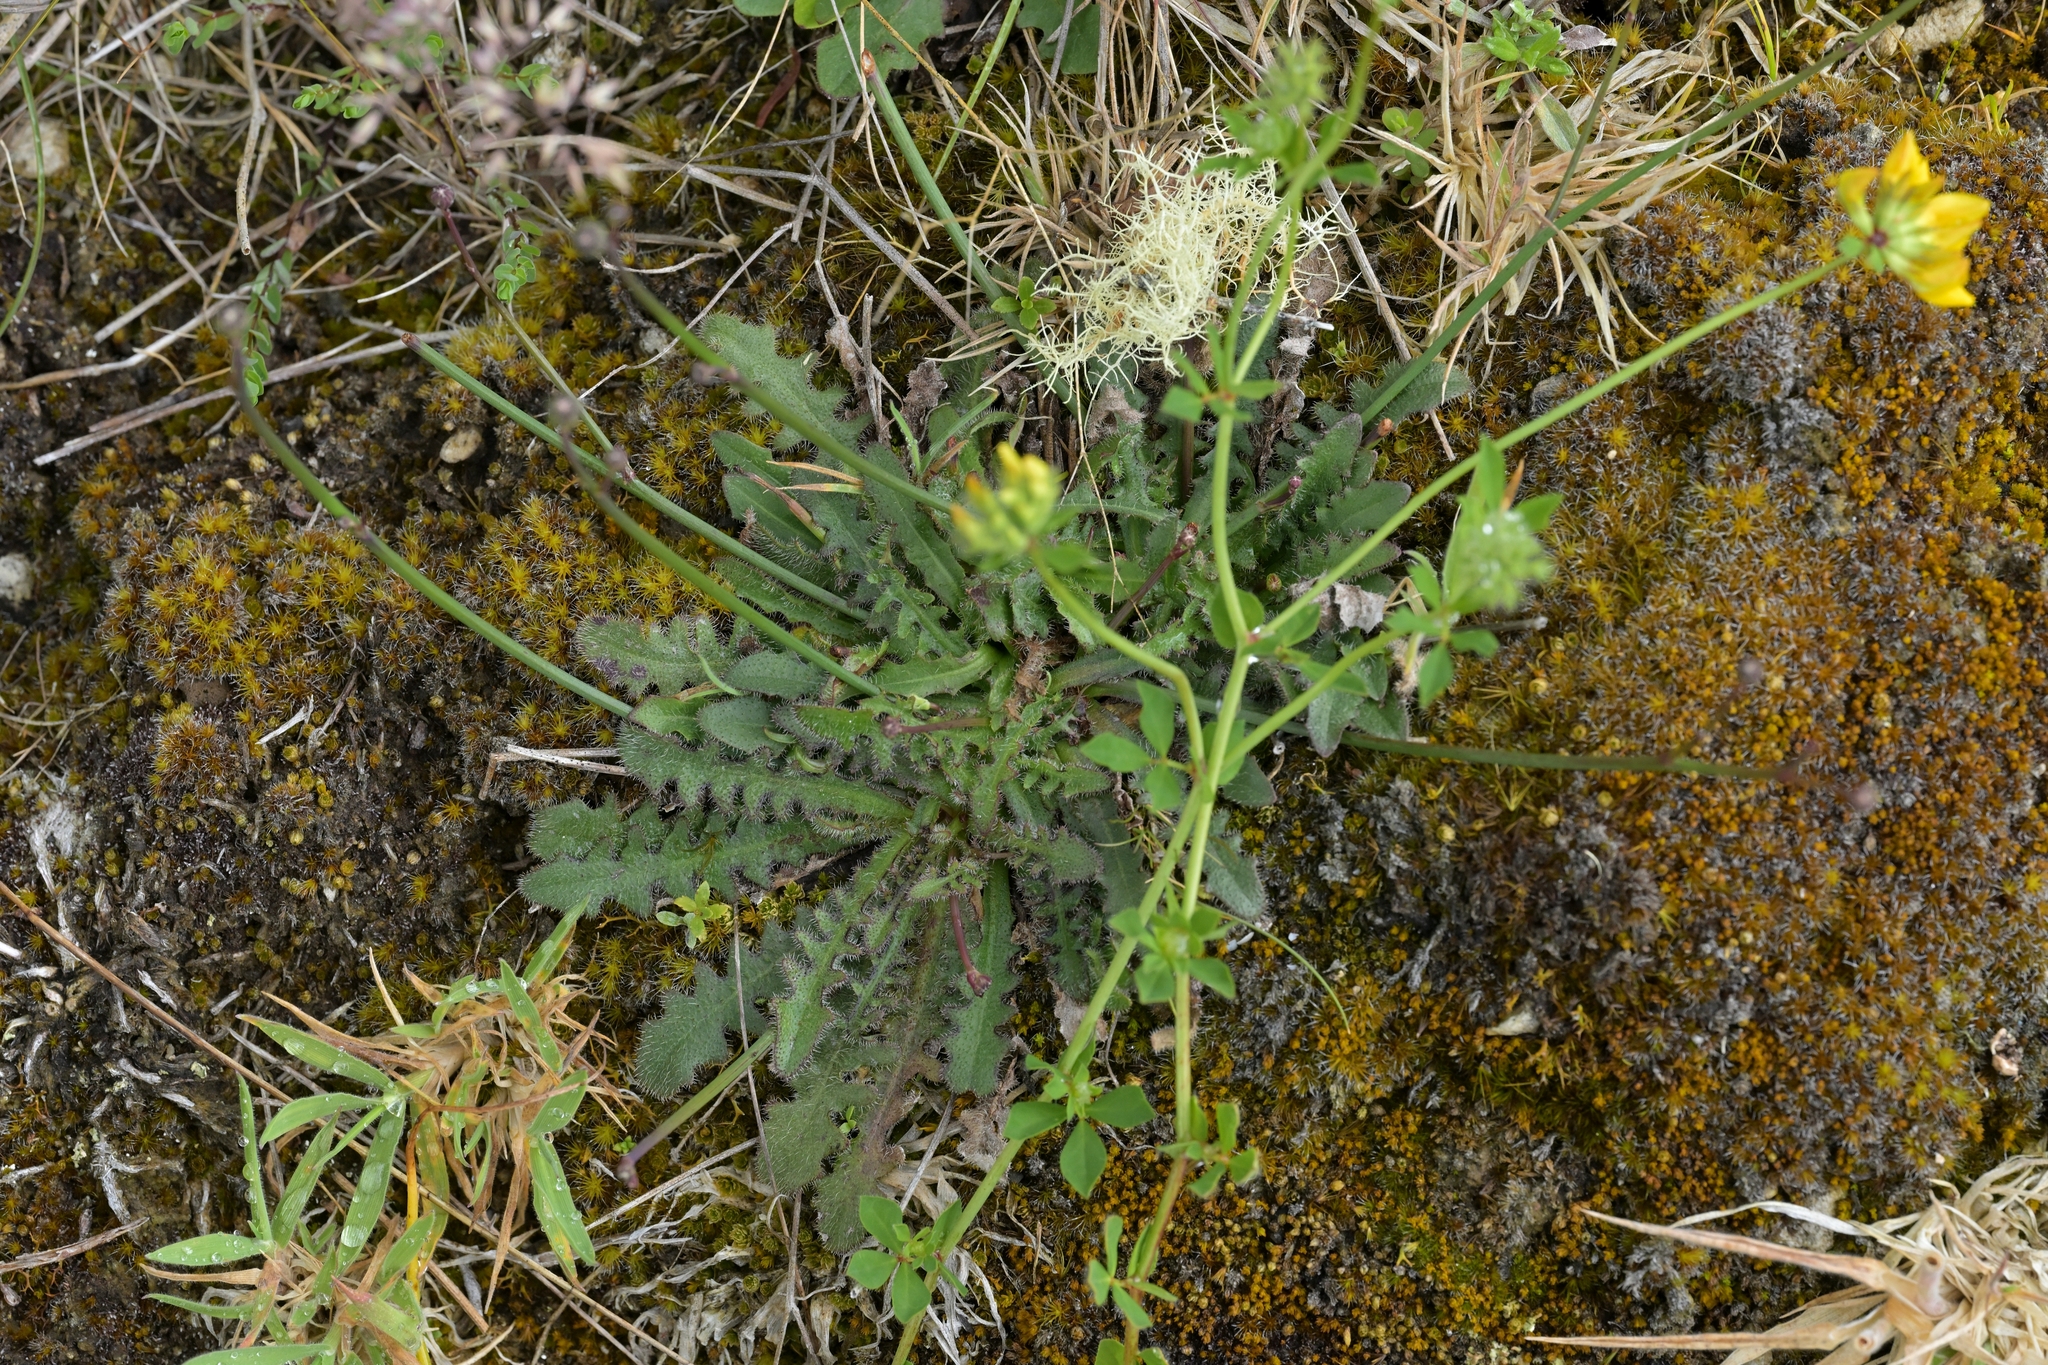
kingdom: Plantae
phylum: Tracheophyta
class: Magnoliopsida
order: Asterales
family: Asteraceae
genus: Hypochaeris
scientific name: Hypochaeris radicata
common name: Flatweed
